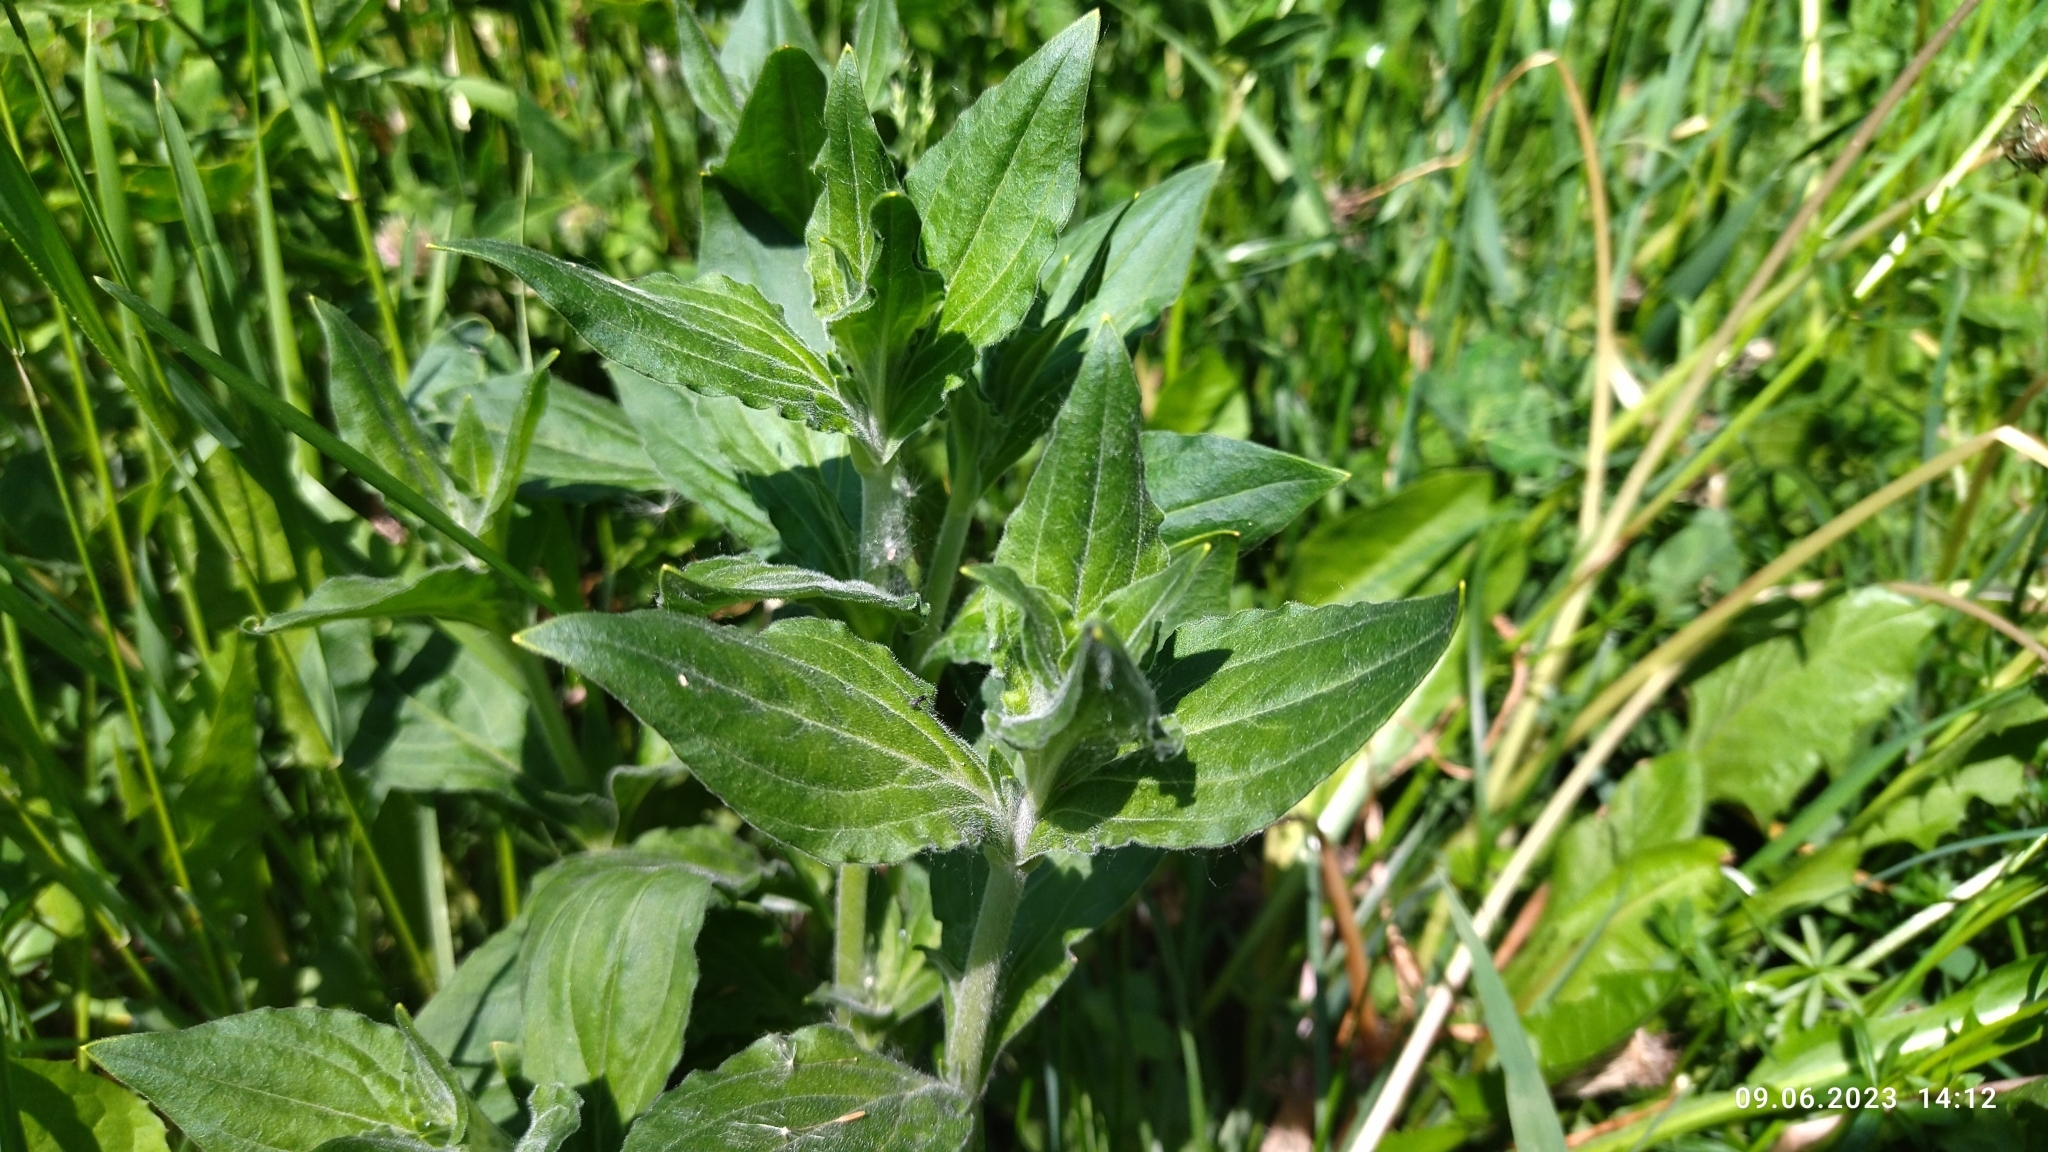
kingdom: Plantae
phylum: Tracheophyta
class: Magnoliopsida
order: Caryophyllales
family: Caryophyllaceae
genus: Silene
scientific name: Silene latifolia
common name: White campion
